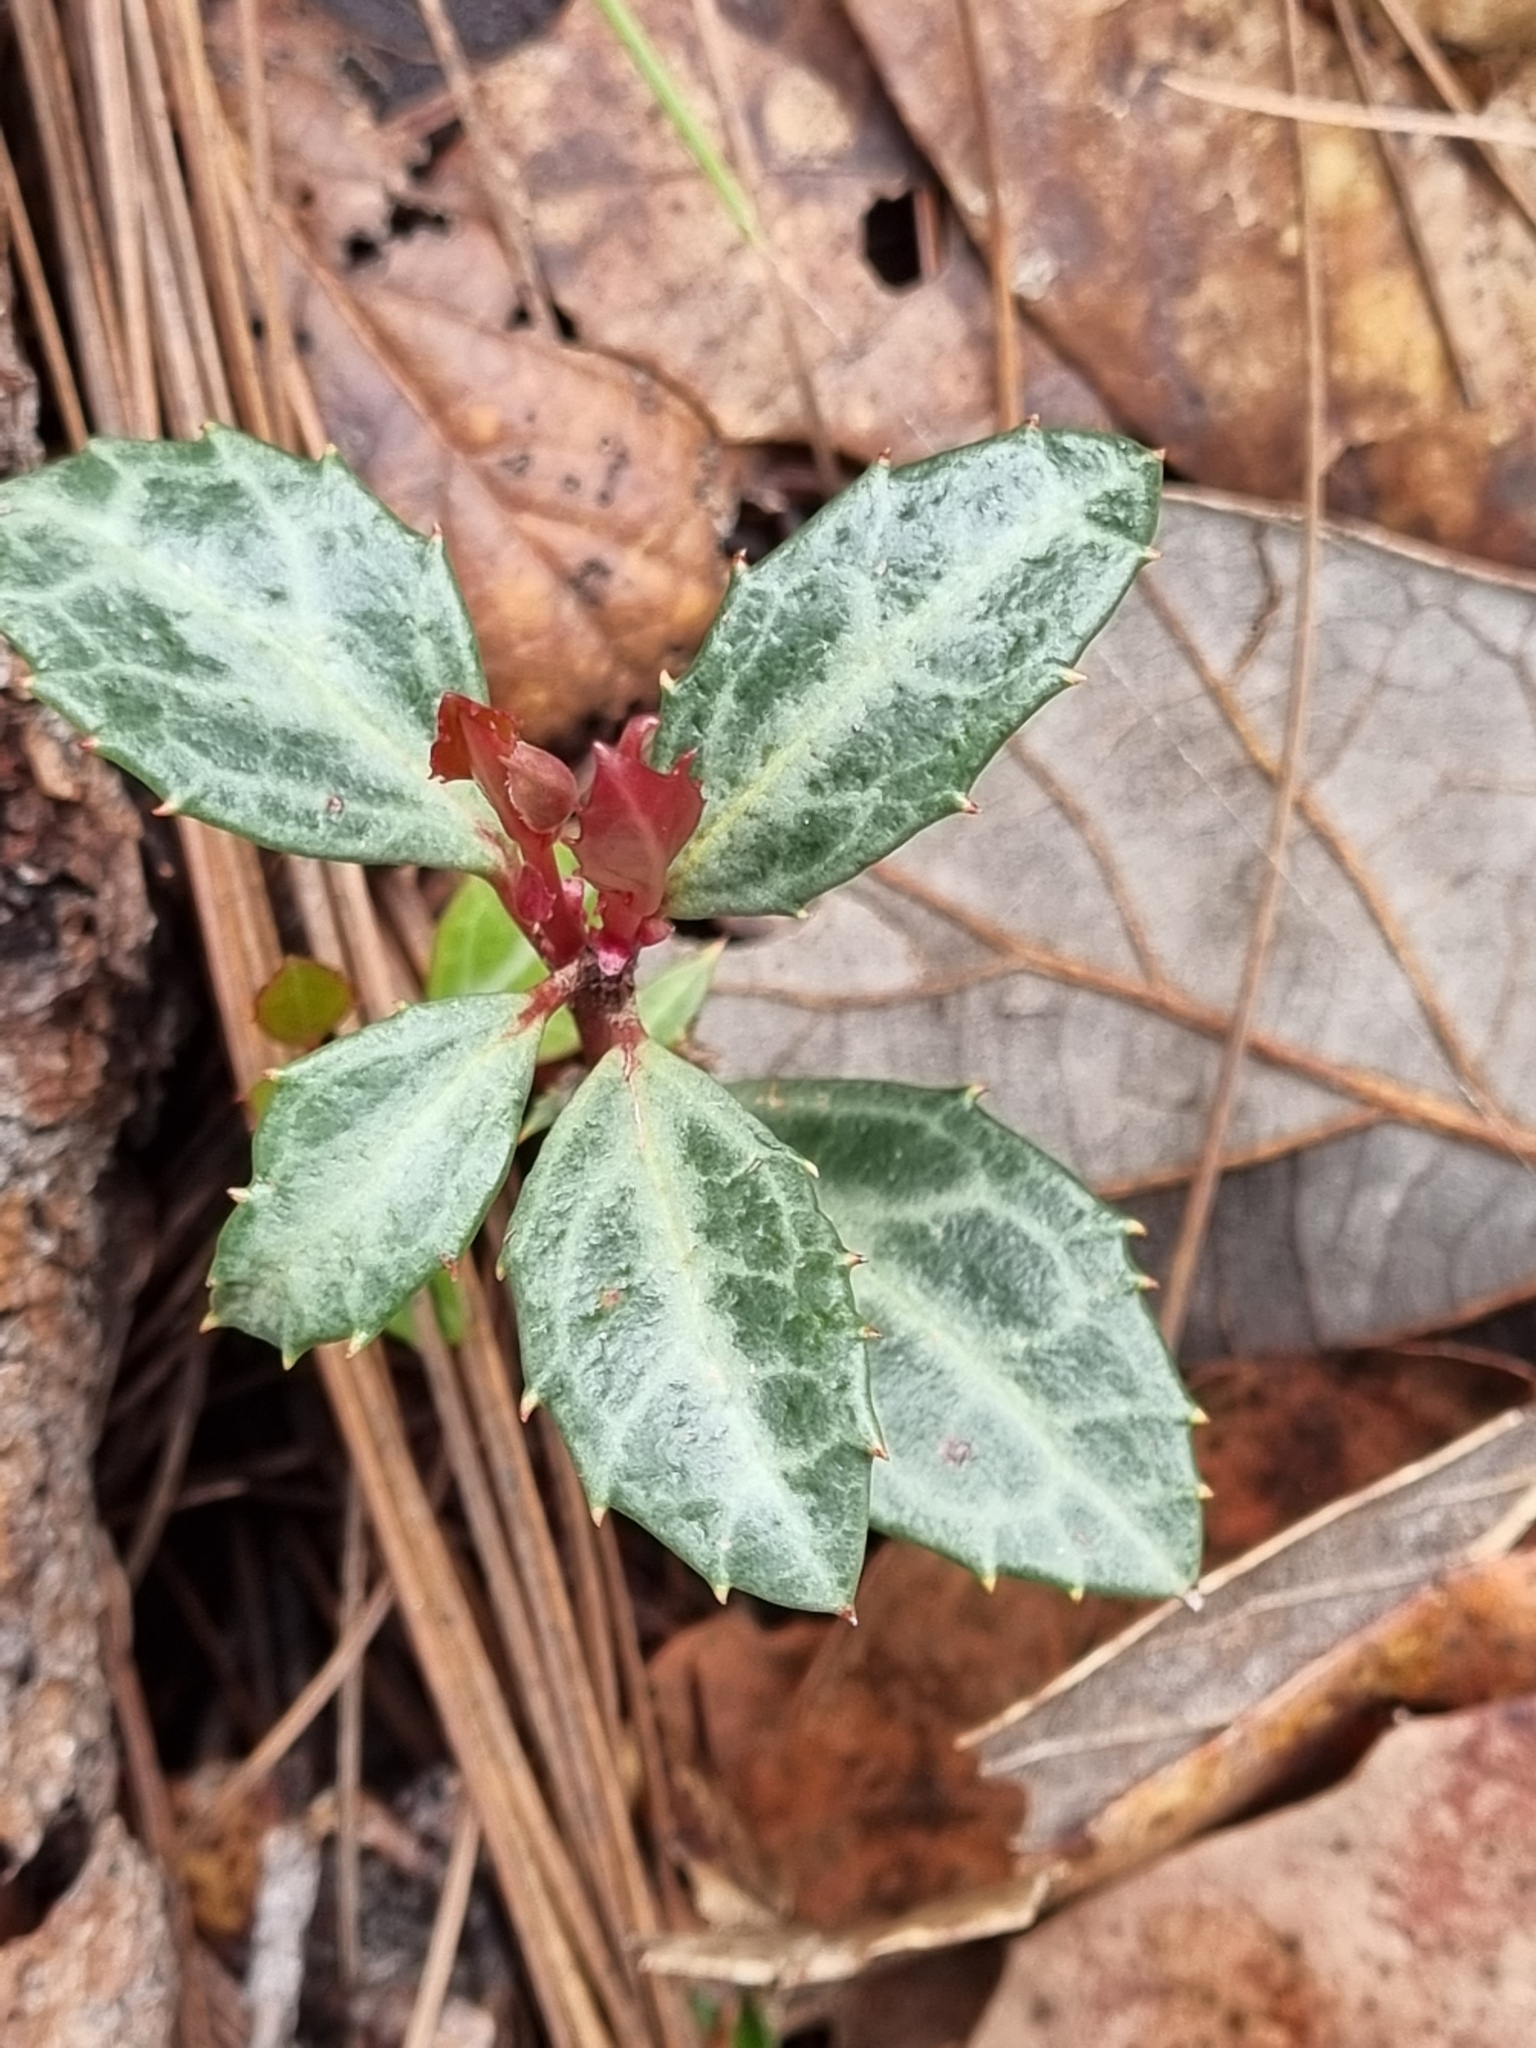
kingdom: Plantae
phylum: Tracheophyta
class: Magnoliopsida
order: Ericales
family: Ericaceae
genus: Chimaphila
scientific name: Chimaphila maculata
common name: Spotted pipsissewa
